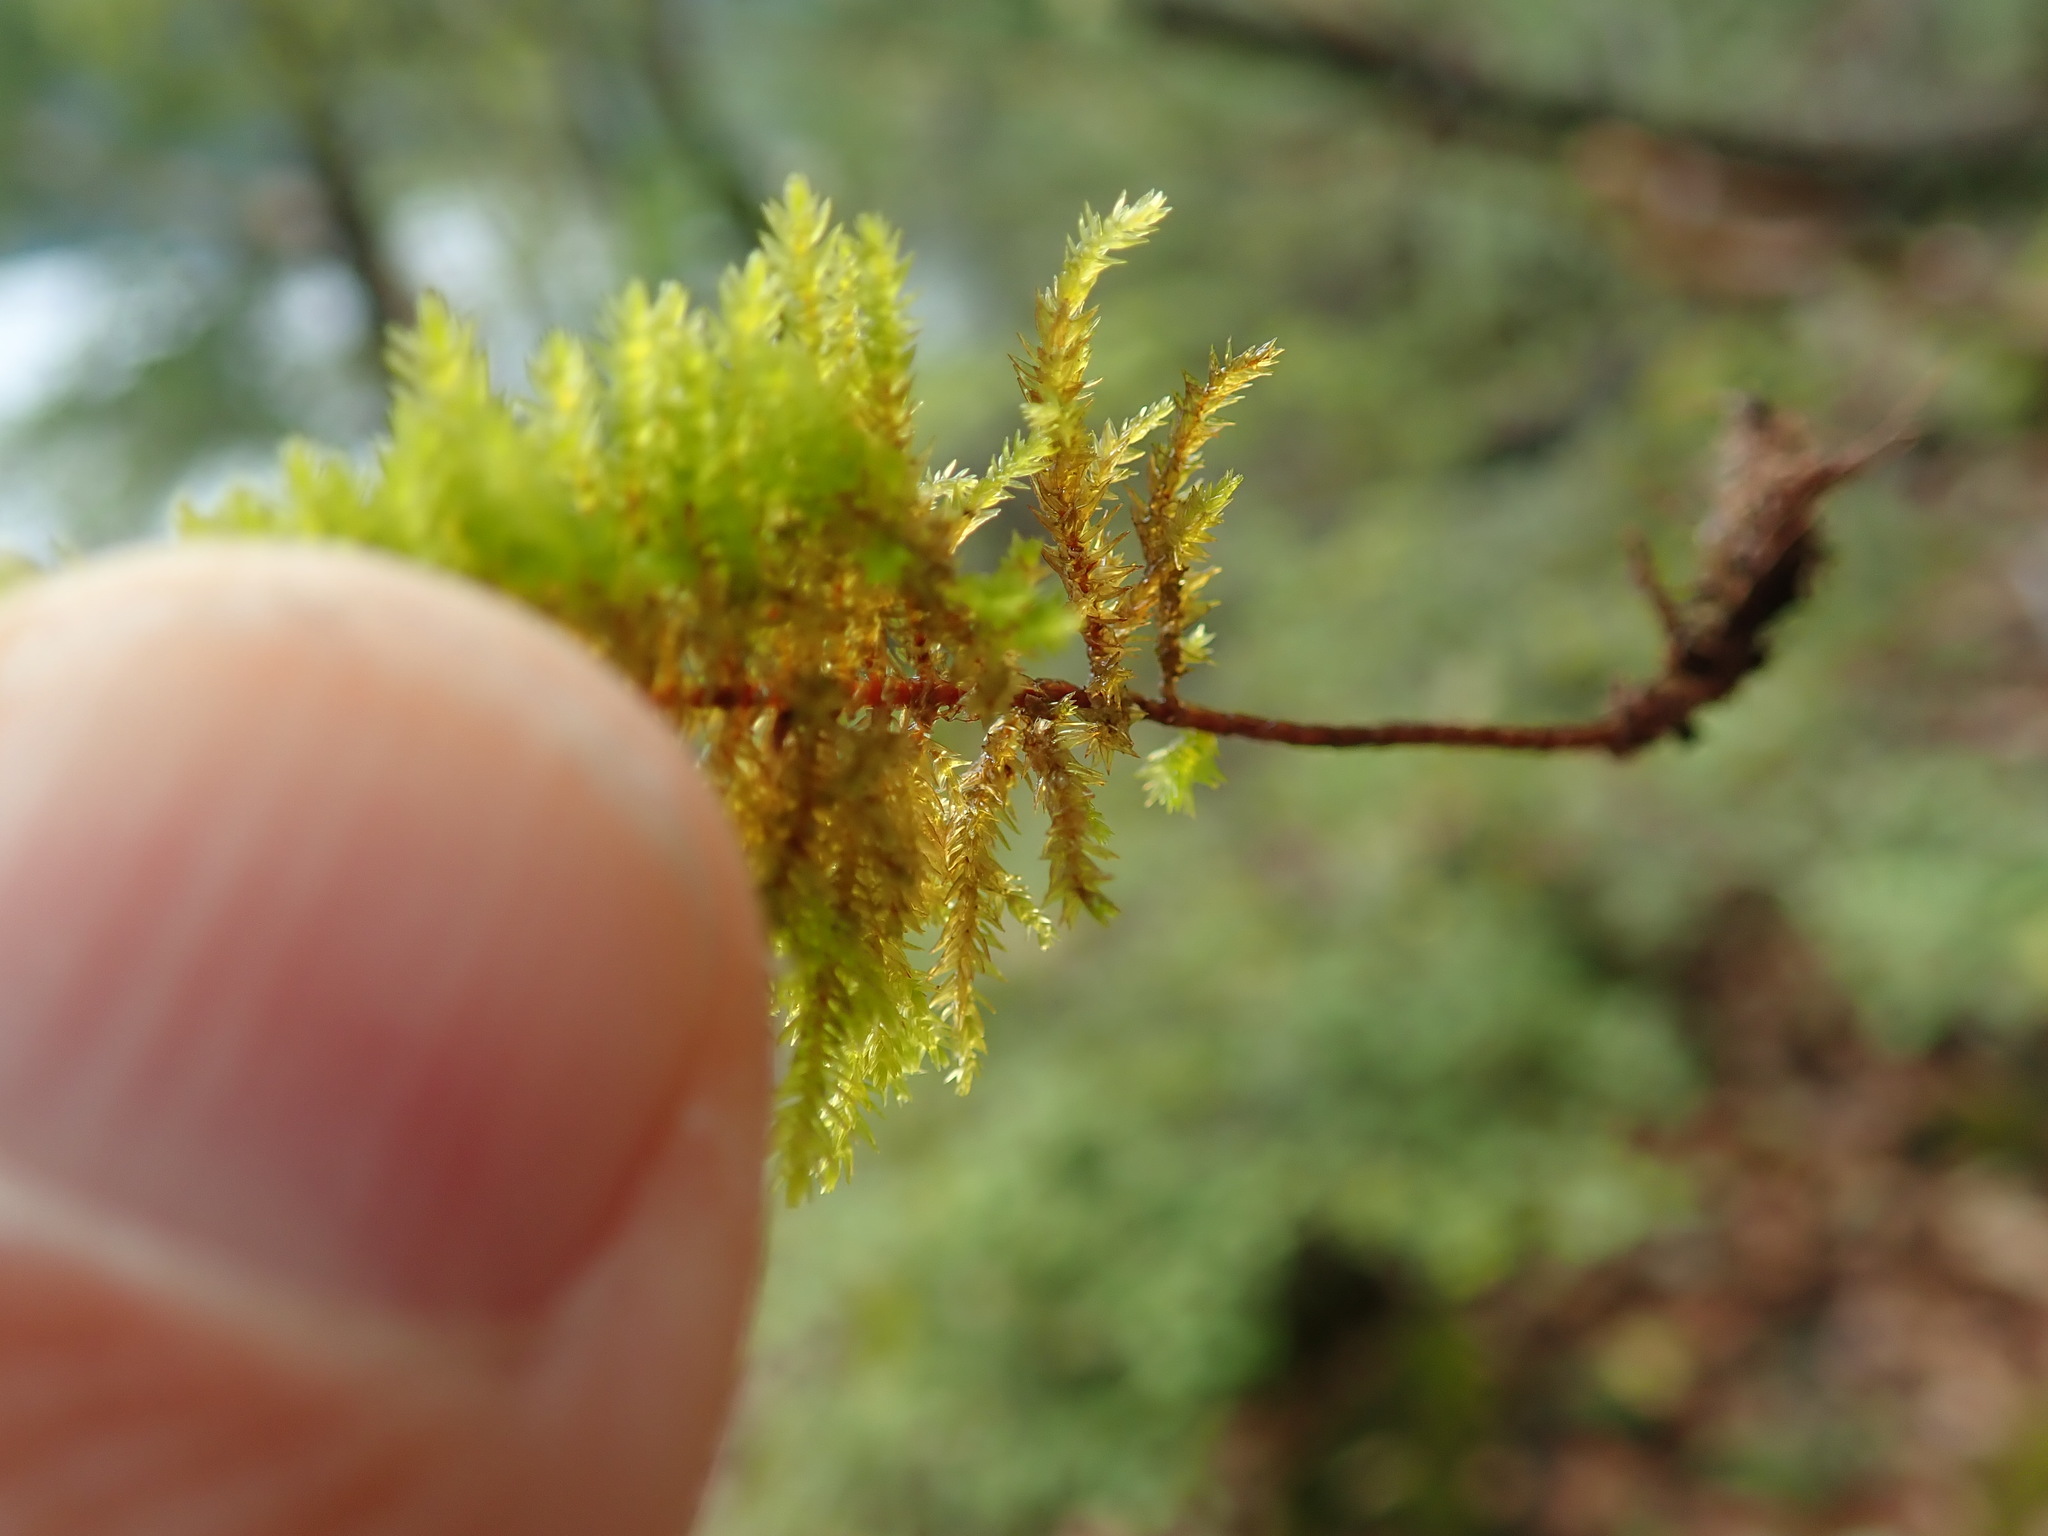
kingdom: Plantae
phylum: Bryophyta
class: Bryopsida
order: Hypnales
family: Cryphaeaceae
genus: Dendroalsia
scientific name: Dendroalsia abietina
